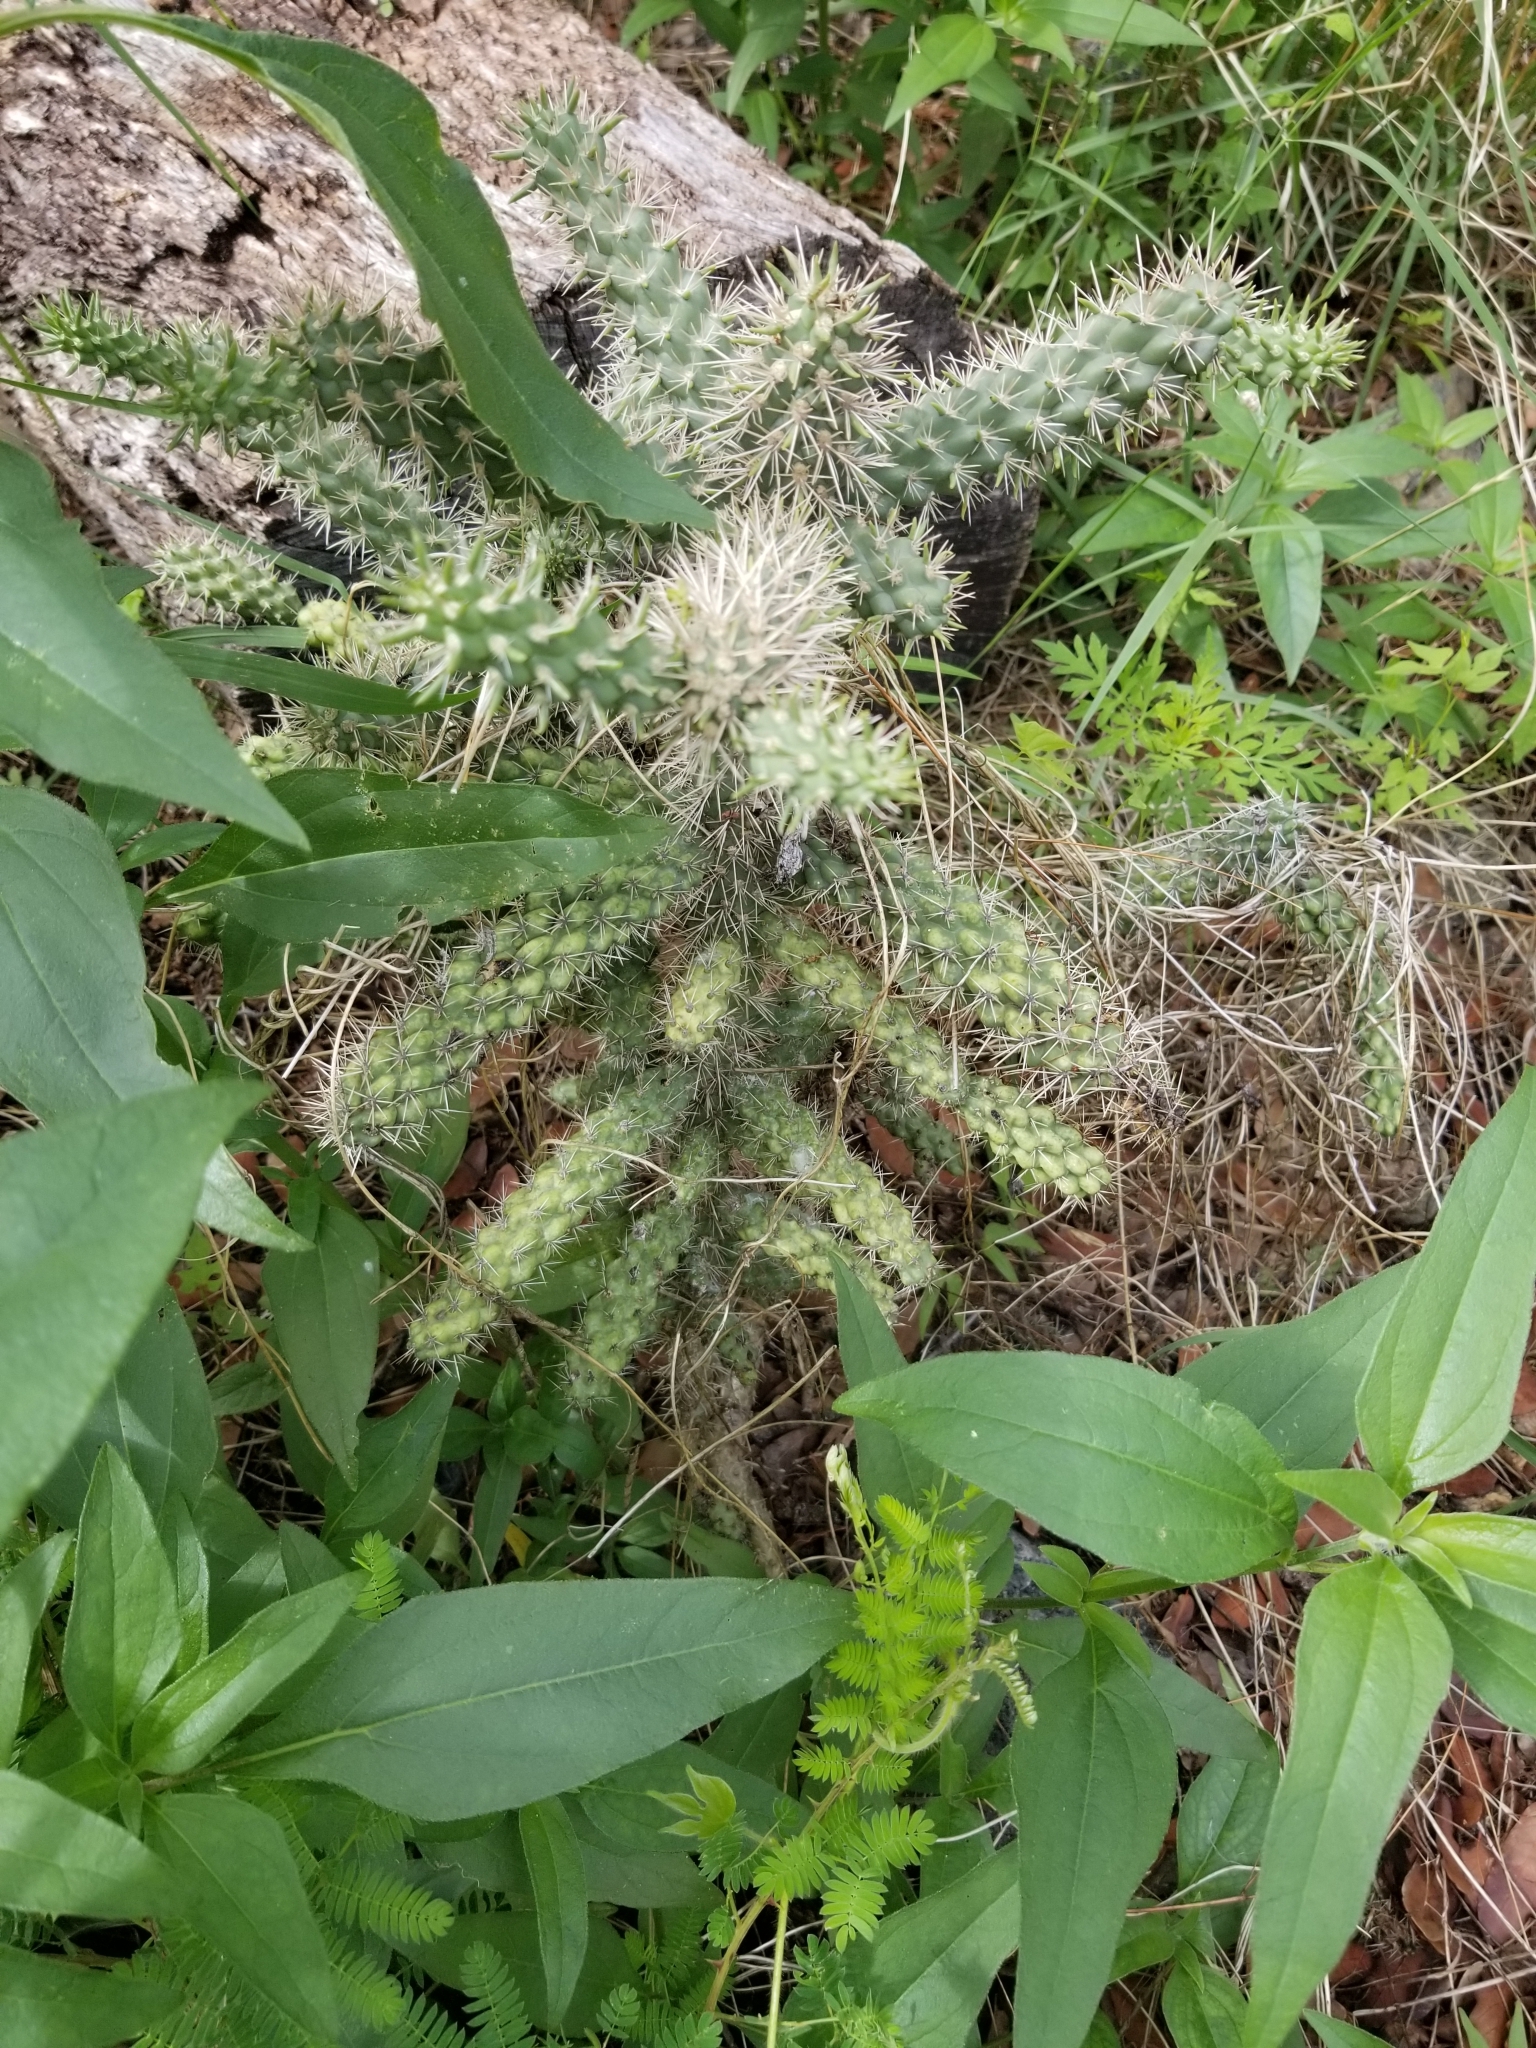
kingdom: Plantae
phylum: Tracheophyta
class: Magnoliopsida
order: Caryophyllales
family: Cactaceae
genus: Cylindropuntia
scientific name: Cylindropuntia imbricata
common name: Candelabrum cactus
